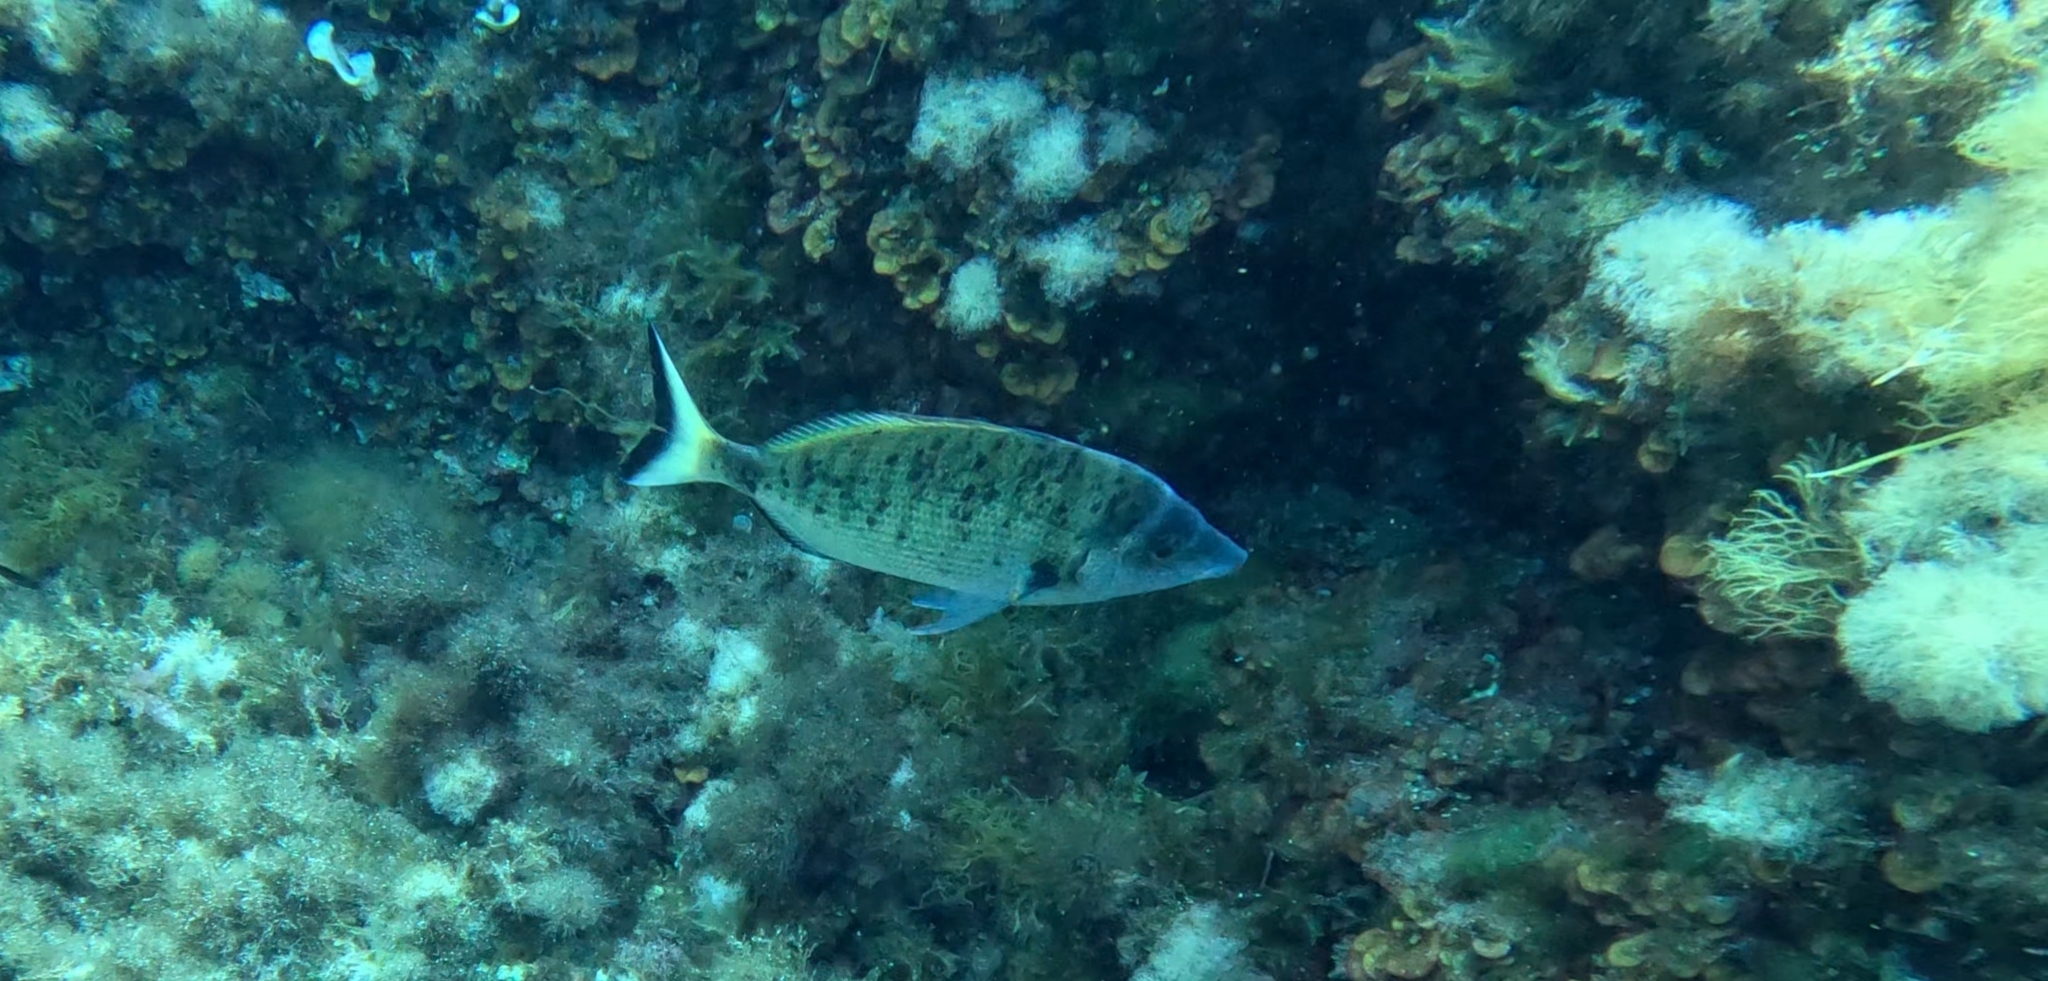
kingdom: Animalia
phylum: Chordata
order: Perciformes
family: Sparidae
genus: Diplodus
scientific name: Diplodus puntazzo
